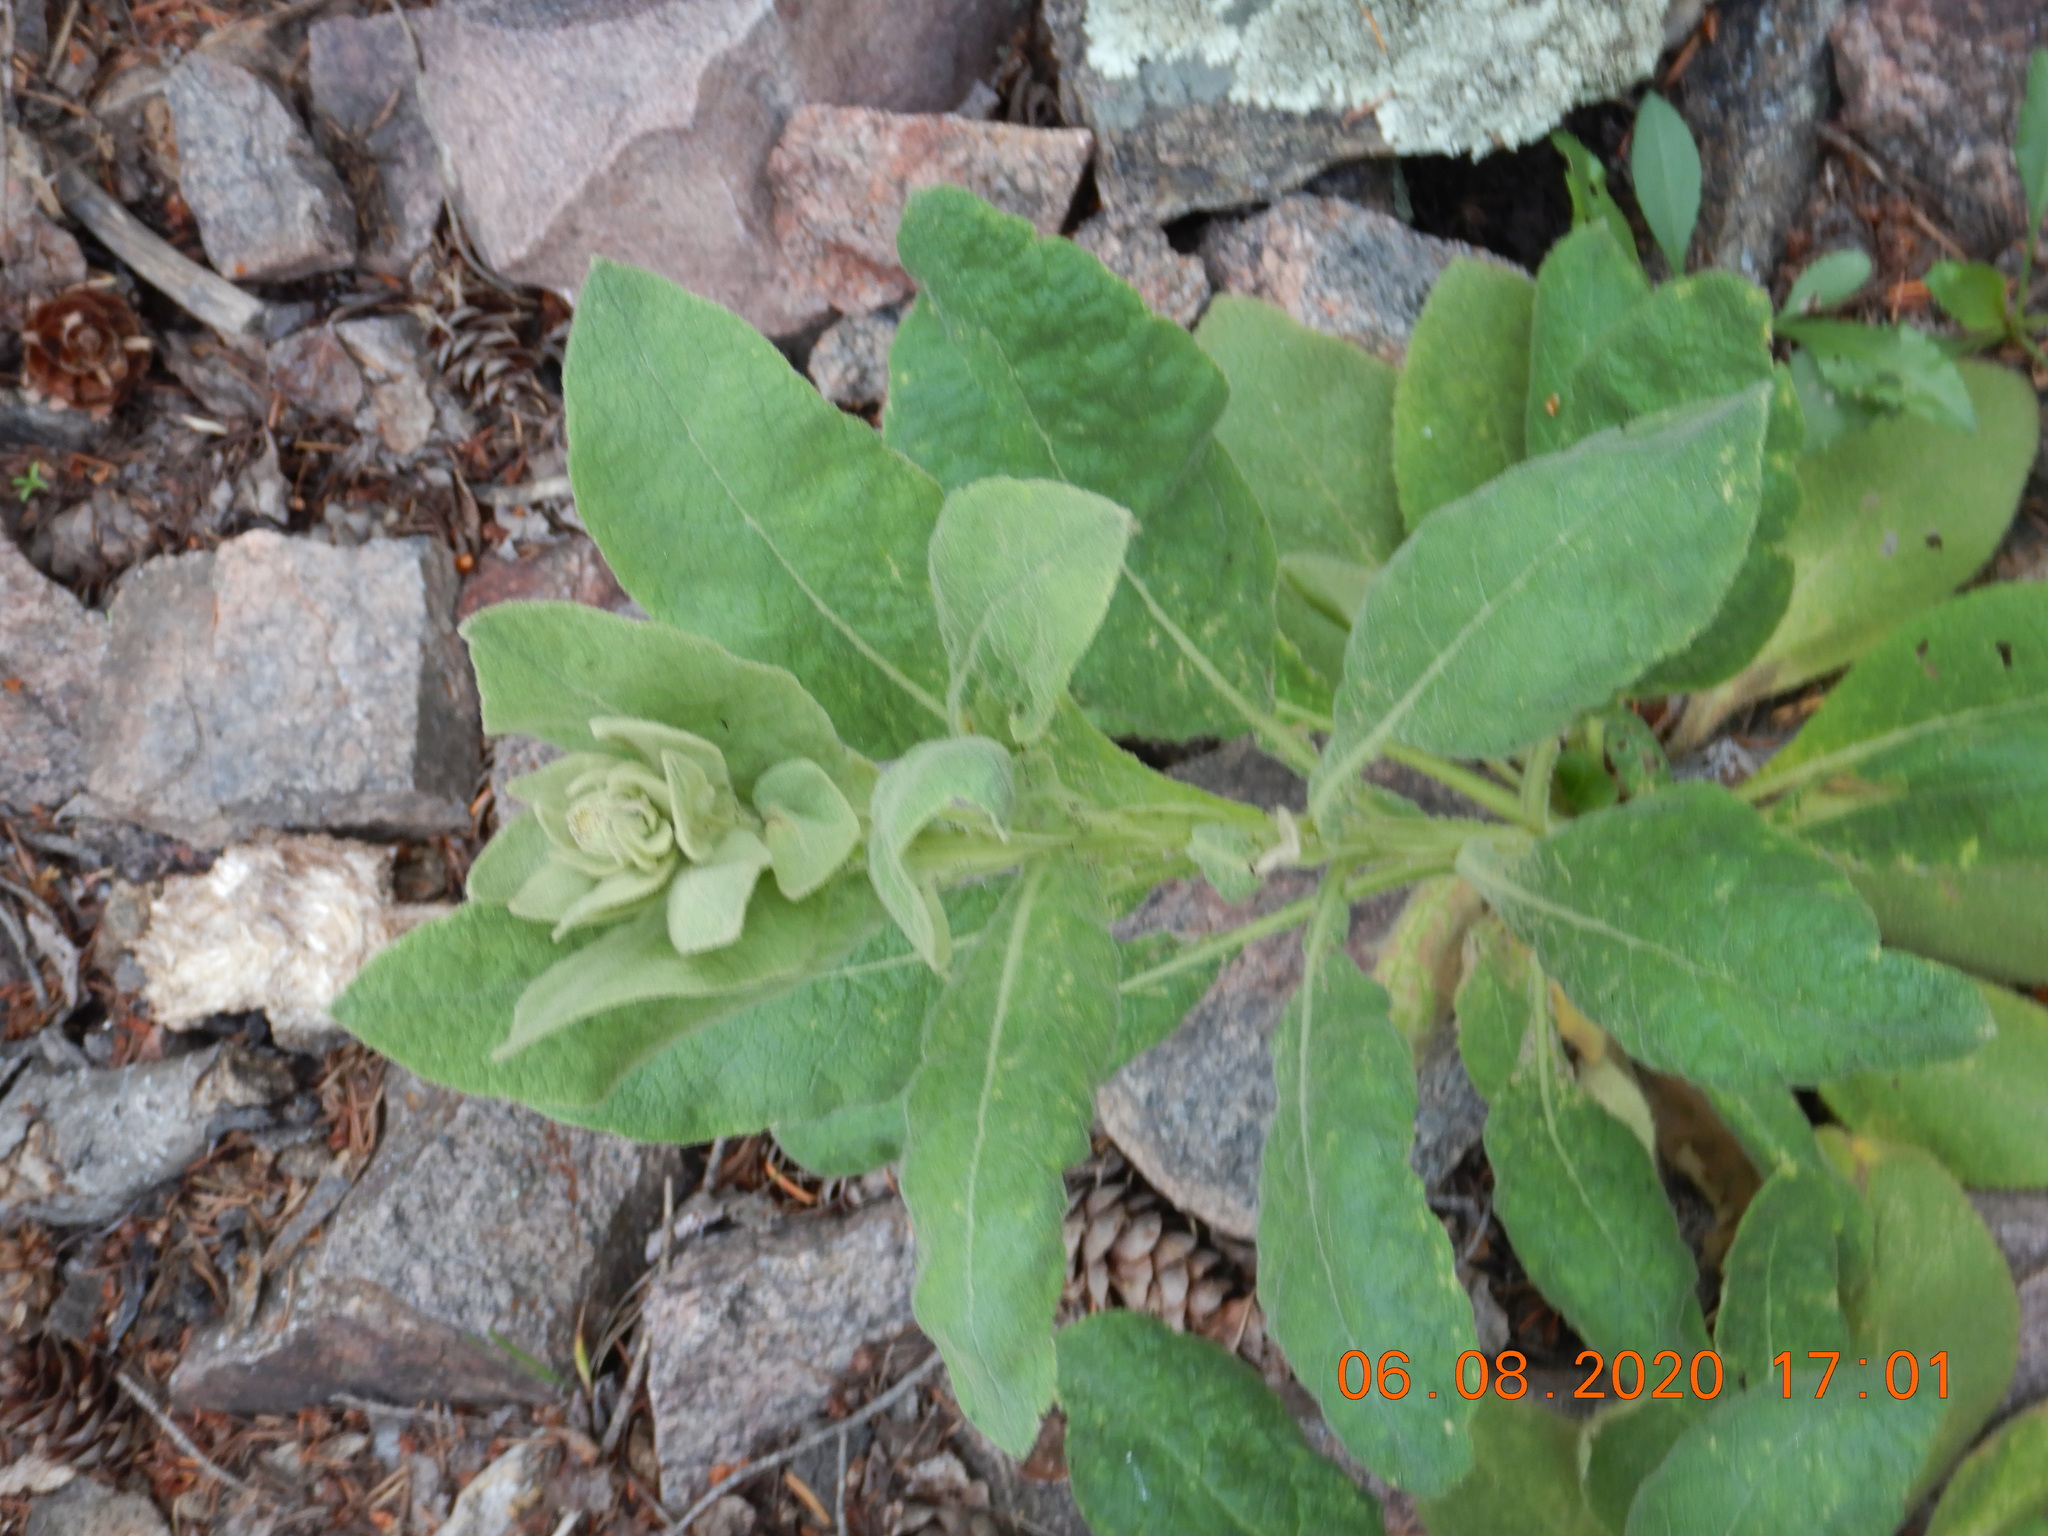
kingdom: Plantae
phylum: Tracheophyta
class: Magnoliopsida
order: Lamiales
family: Scrophulariaceae
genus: Verbascum
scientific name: Verbascum thapsus
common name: Common mullein
